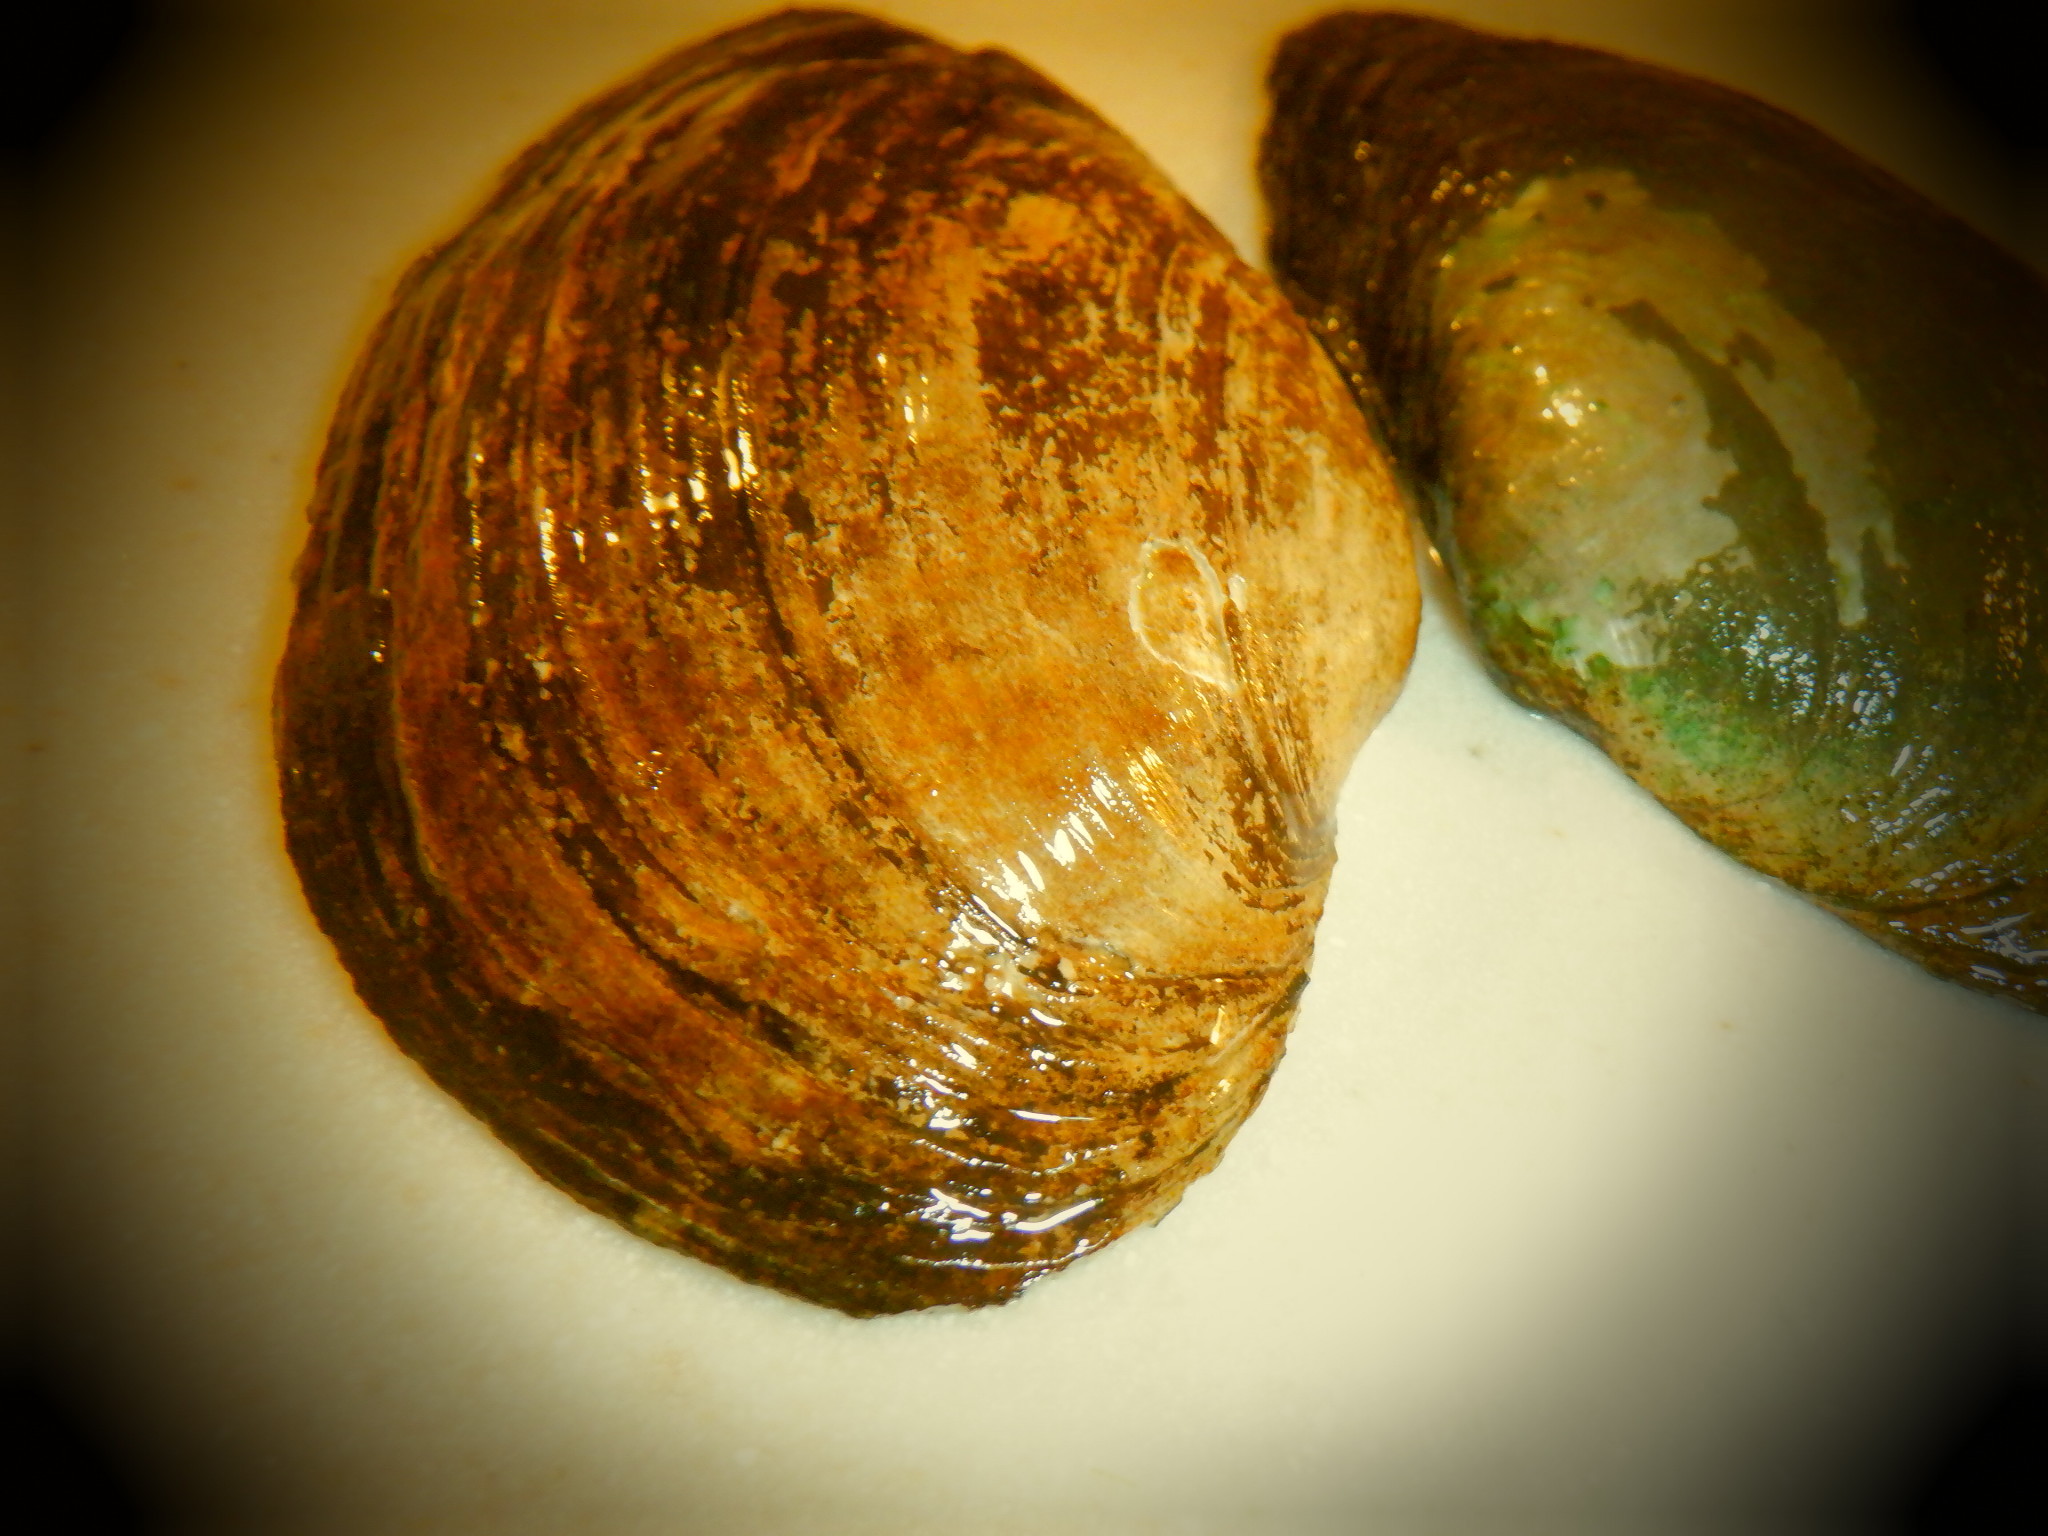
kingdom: Animalia
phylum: Mollusca
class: Bivalvia
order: Unionida
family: Unionidae
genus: Pyganodon
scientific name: Pyganodon grandis
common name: Giant floater
